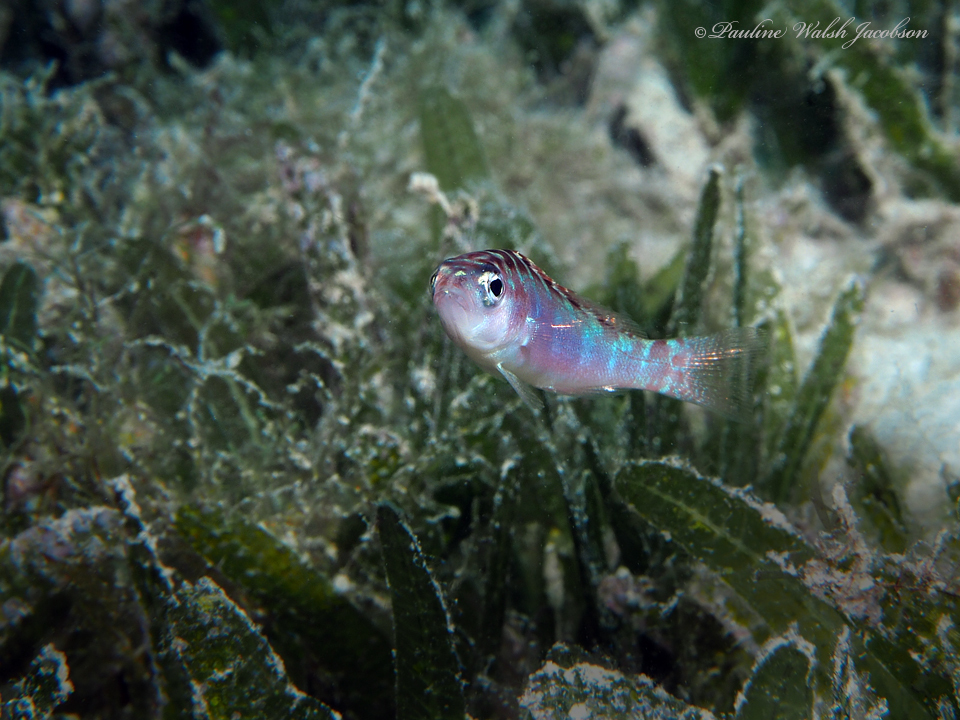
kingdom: Animalia
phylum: Chordata
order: Perciformes
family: Serranidae
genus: Serranus
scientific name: Serranus tortugarum
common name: Chalk bass
